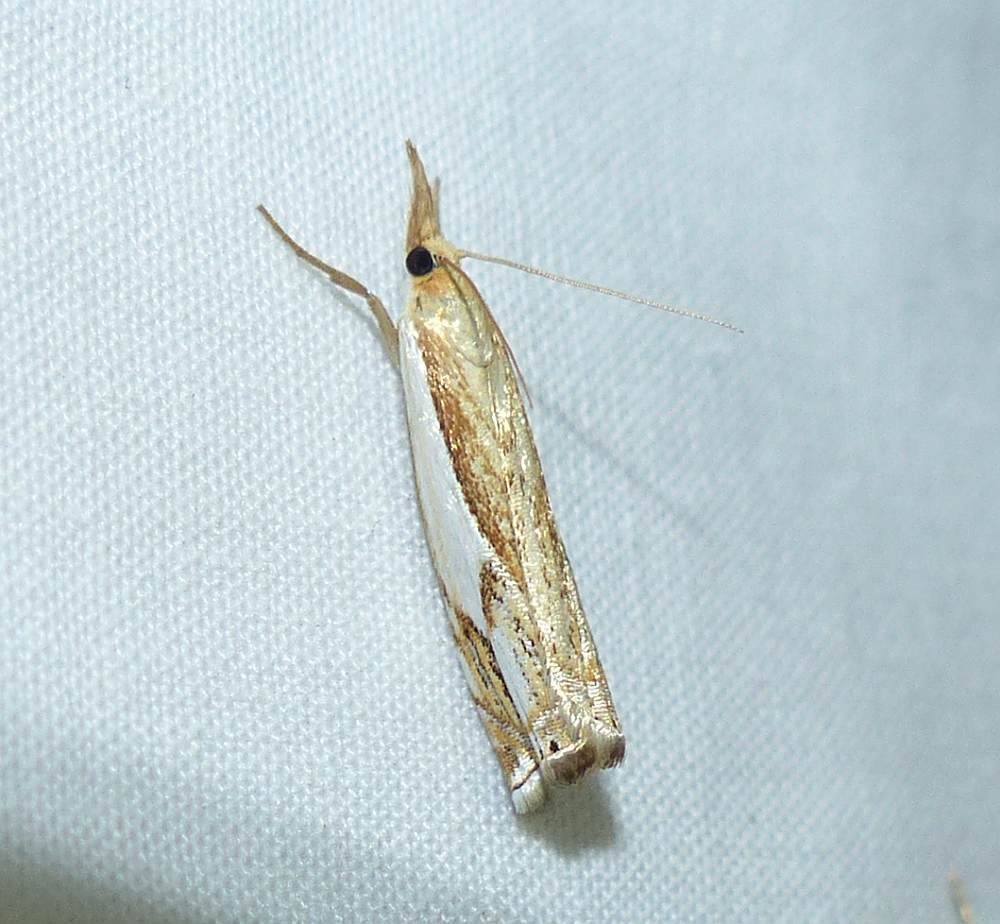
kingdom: Animalia
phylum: Arthropoda
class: Insecta
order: Lepidoptera
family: Crambidae
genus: Crambus
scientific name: Crambus agitatellus
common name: Double-banded grass-veneer
